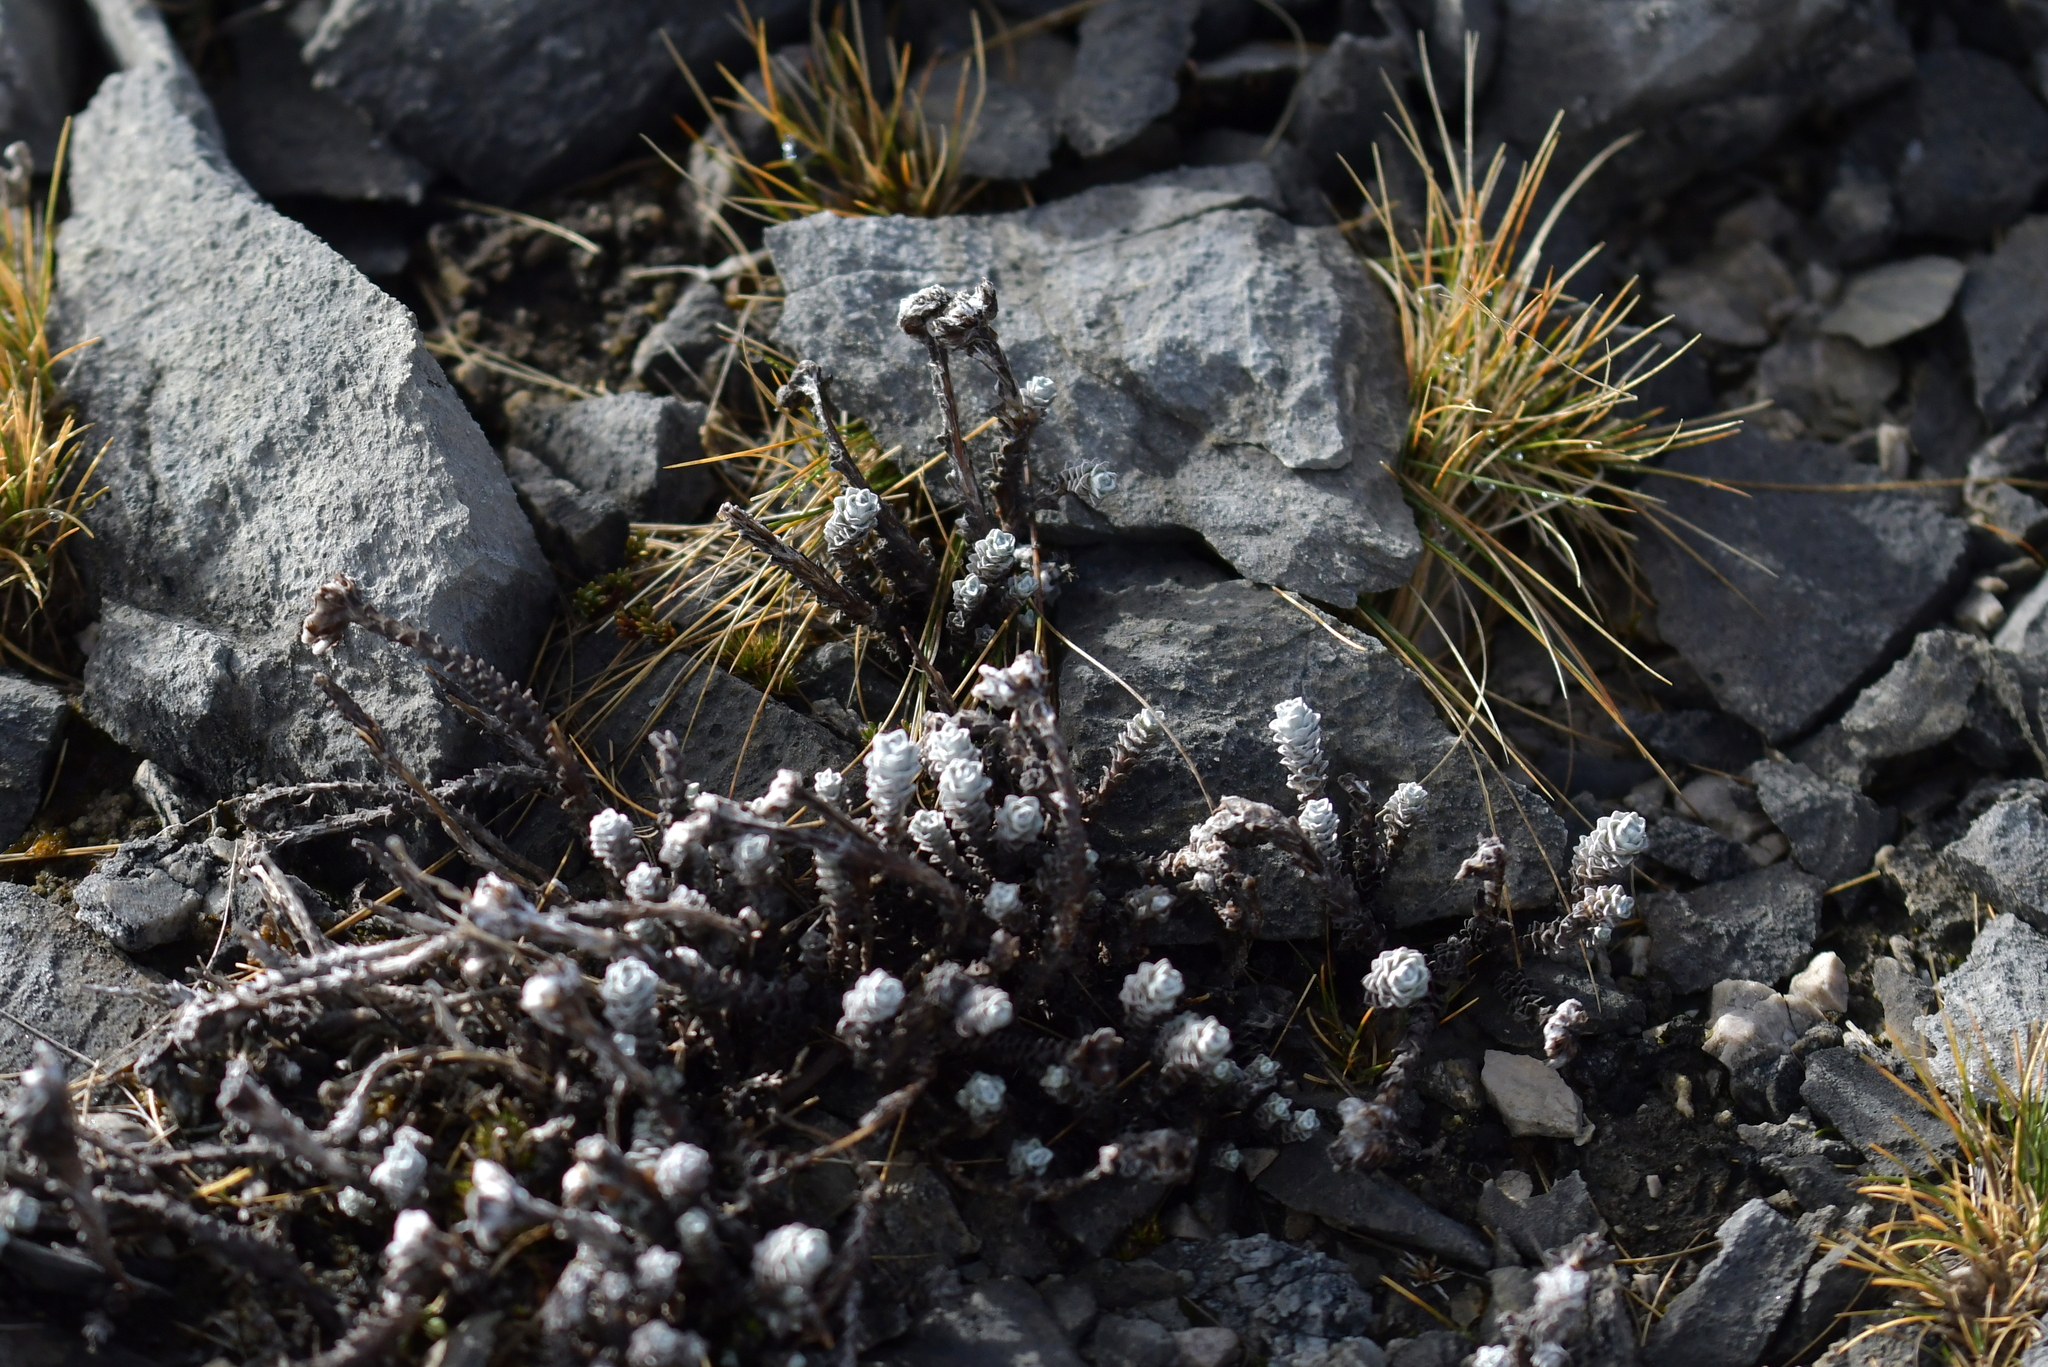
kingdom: Plantae
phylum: Tracheophyta
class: Magnoliopsida
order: Asterales
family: Asteraceae
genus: Leucogenes
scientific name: Leucogenes grandiceps
